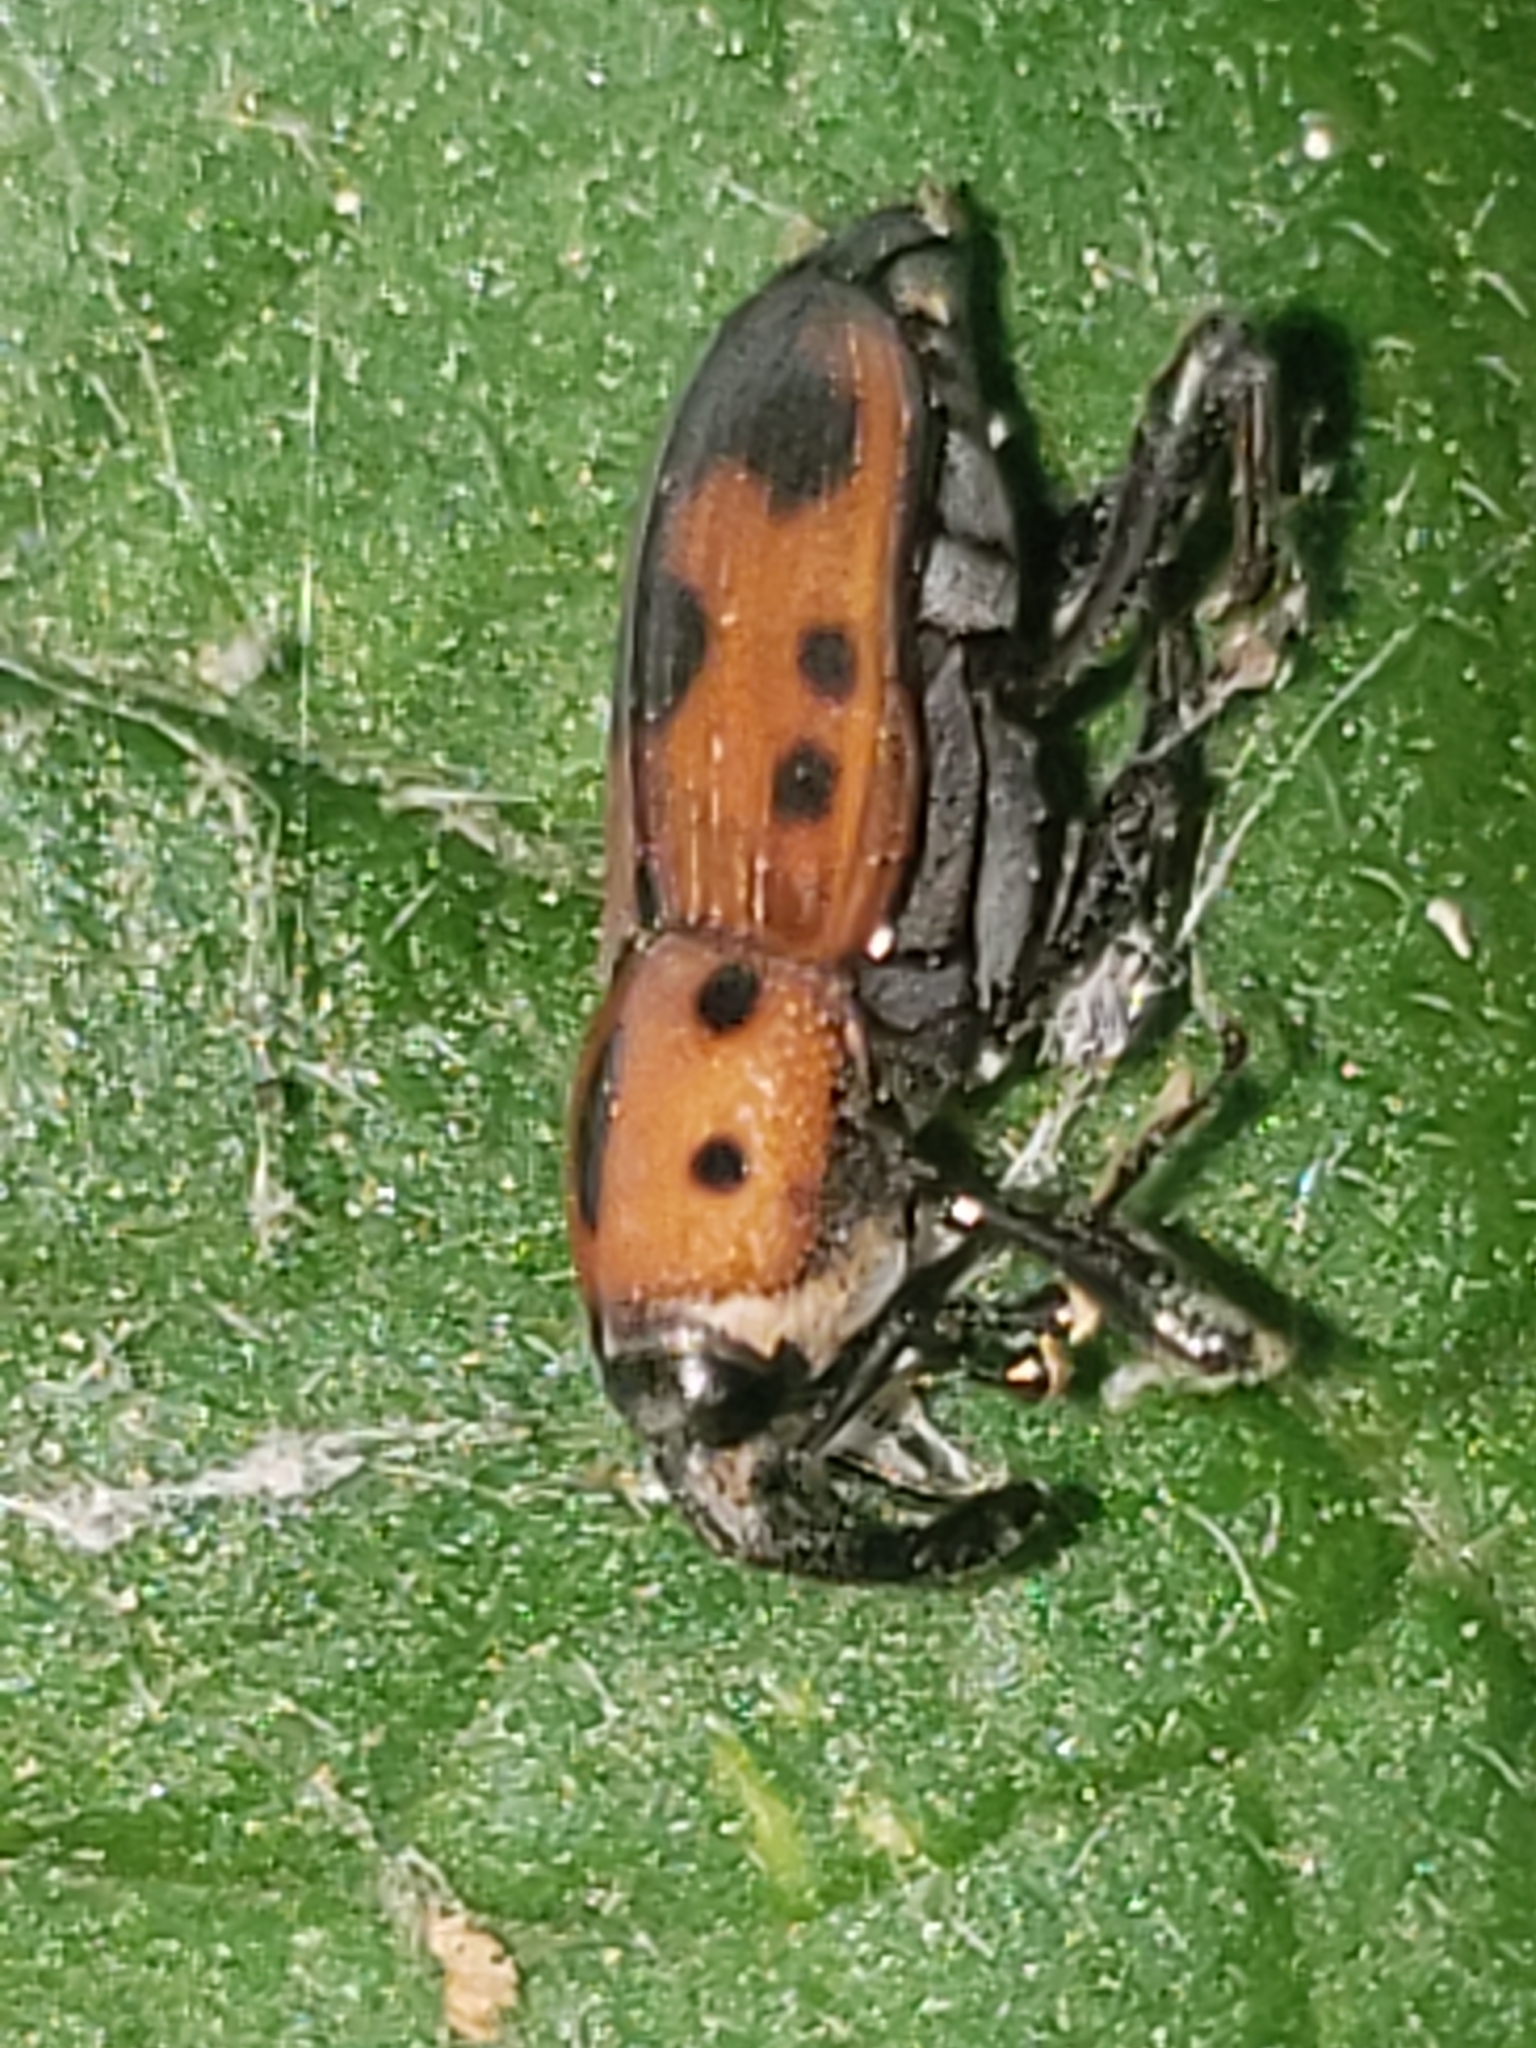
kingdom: Animalia
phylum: Arthropoda
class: Insecta
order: Coleoptera
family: Dryophthoridae
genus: Rhodobaenus
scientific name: Rhodobaenus quinquepunctatus
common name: Cocklebur weevil
